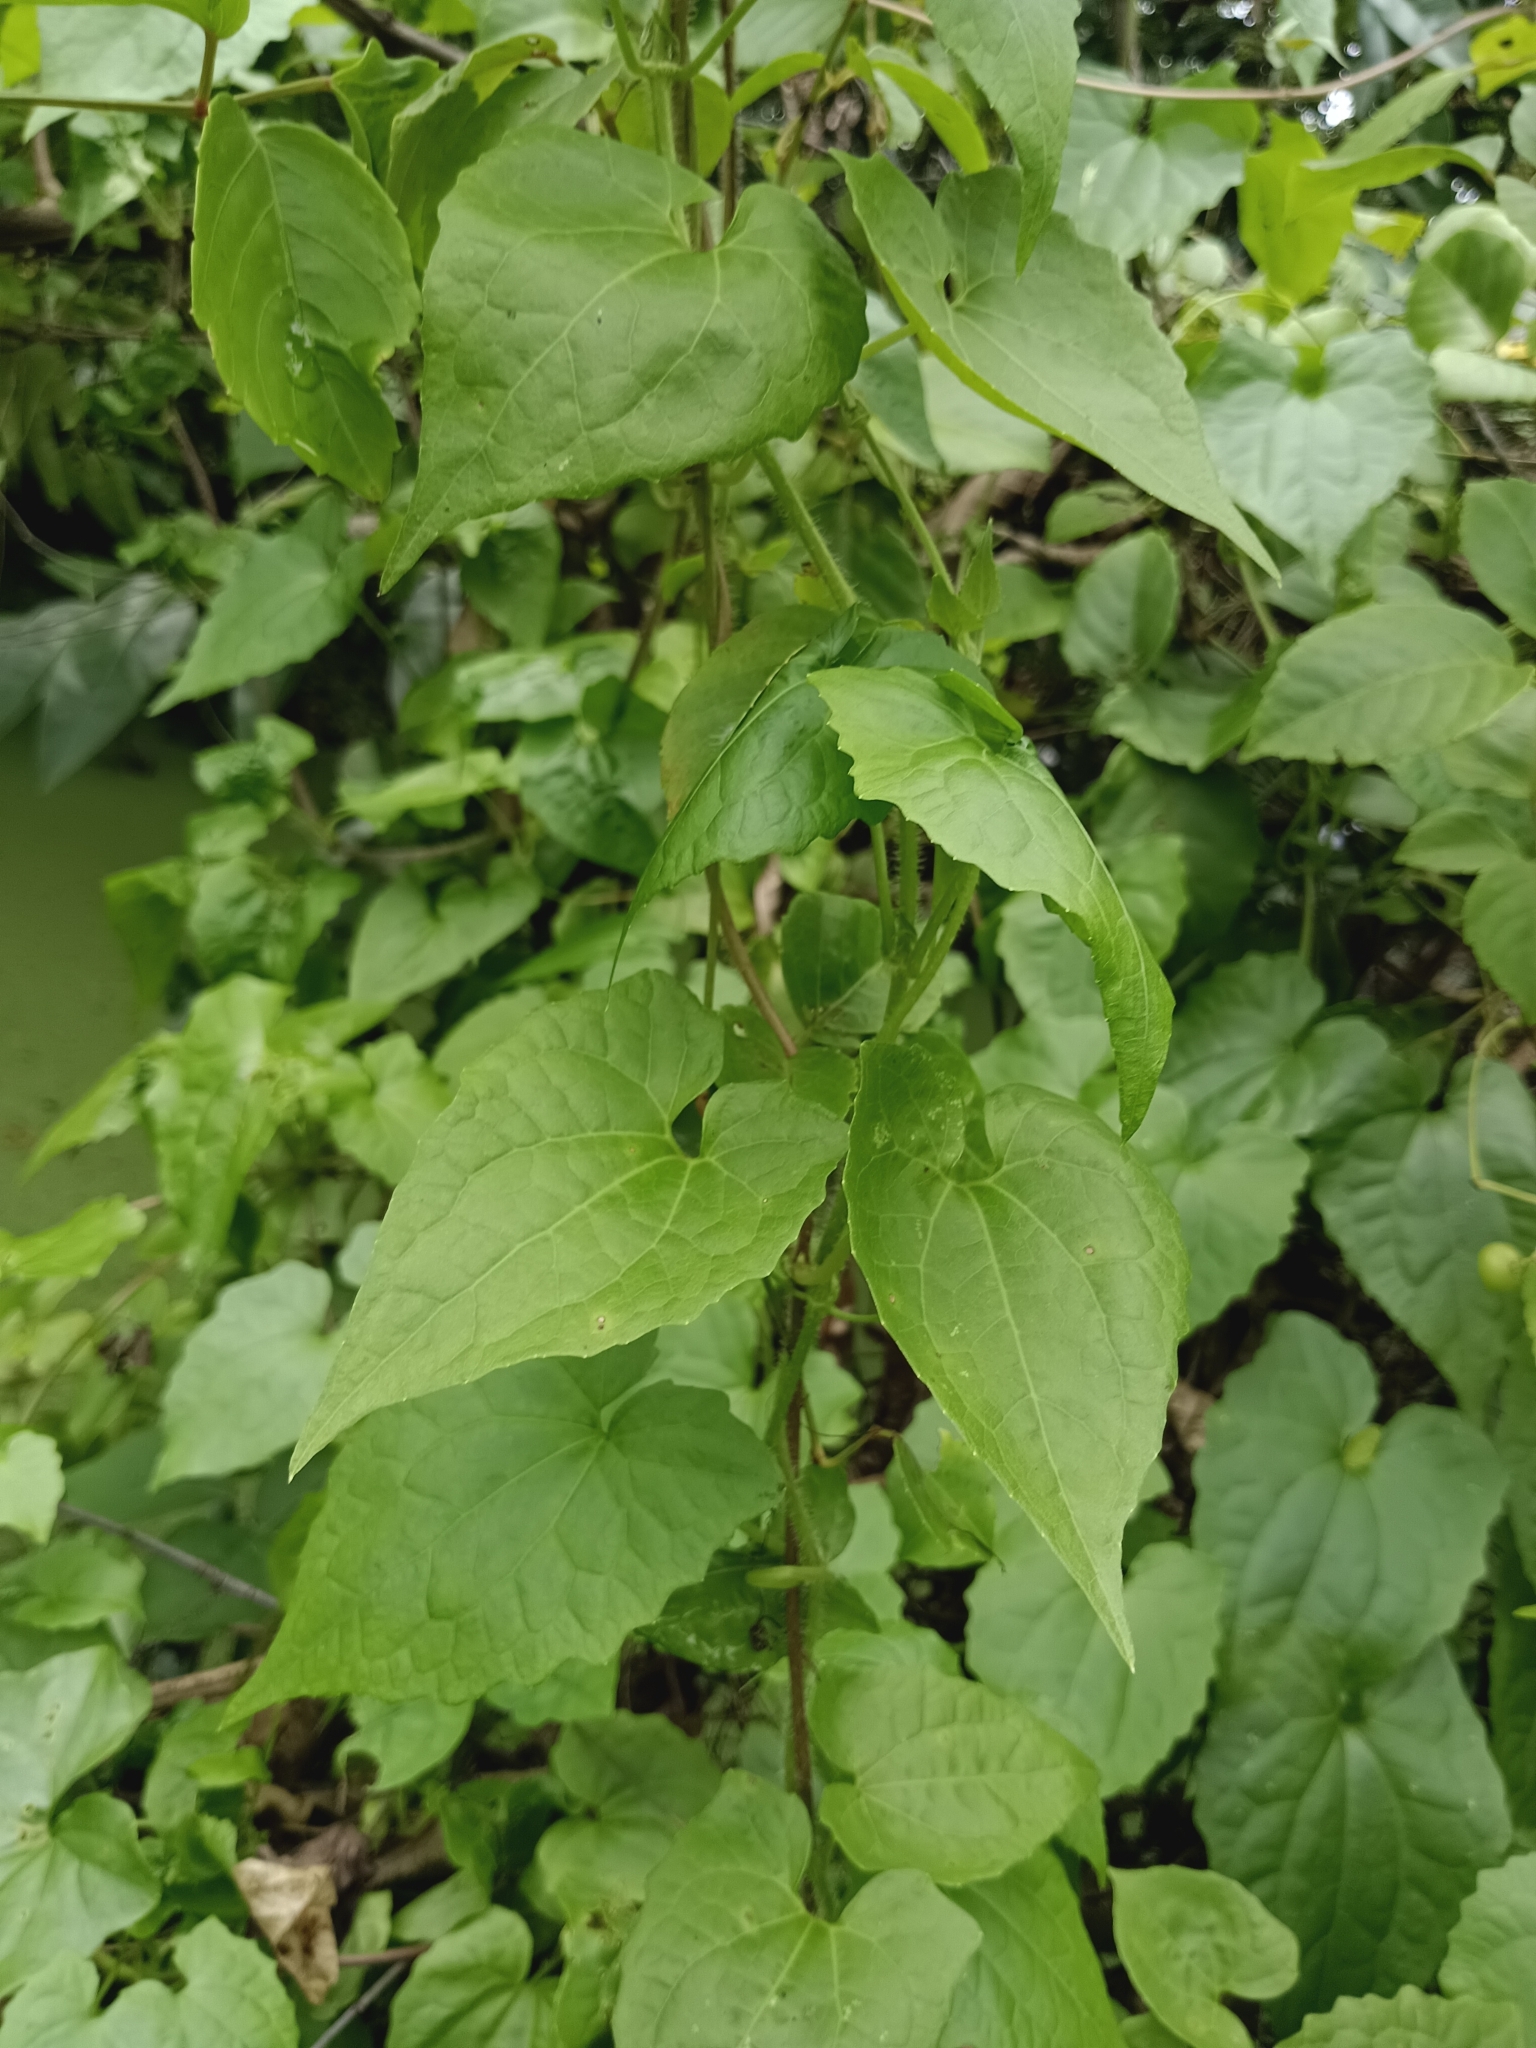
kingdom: Plantae
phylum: Tracheophyta
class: Magnoliopsida
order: Asterales
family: Asteraceae
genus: Mikania
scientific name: Mikania micrantha
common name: Mile-a-minute
